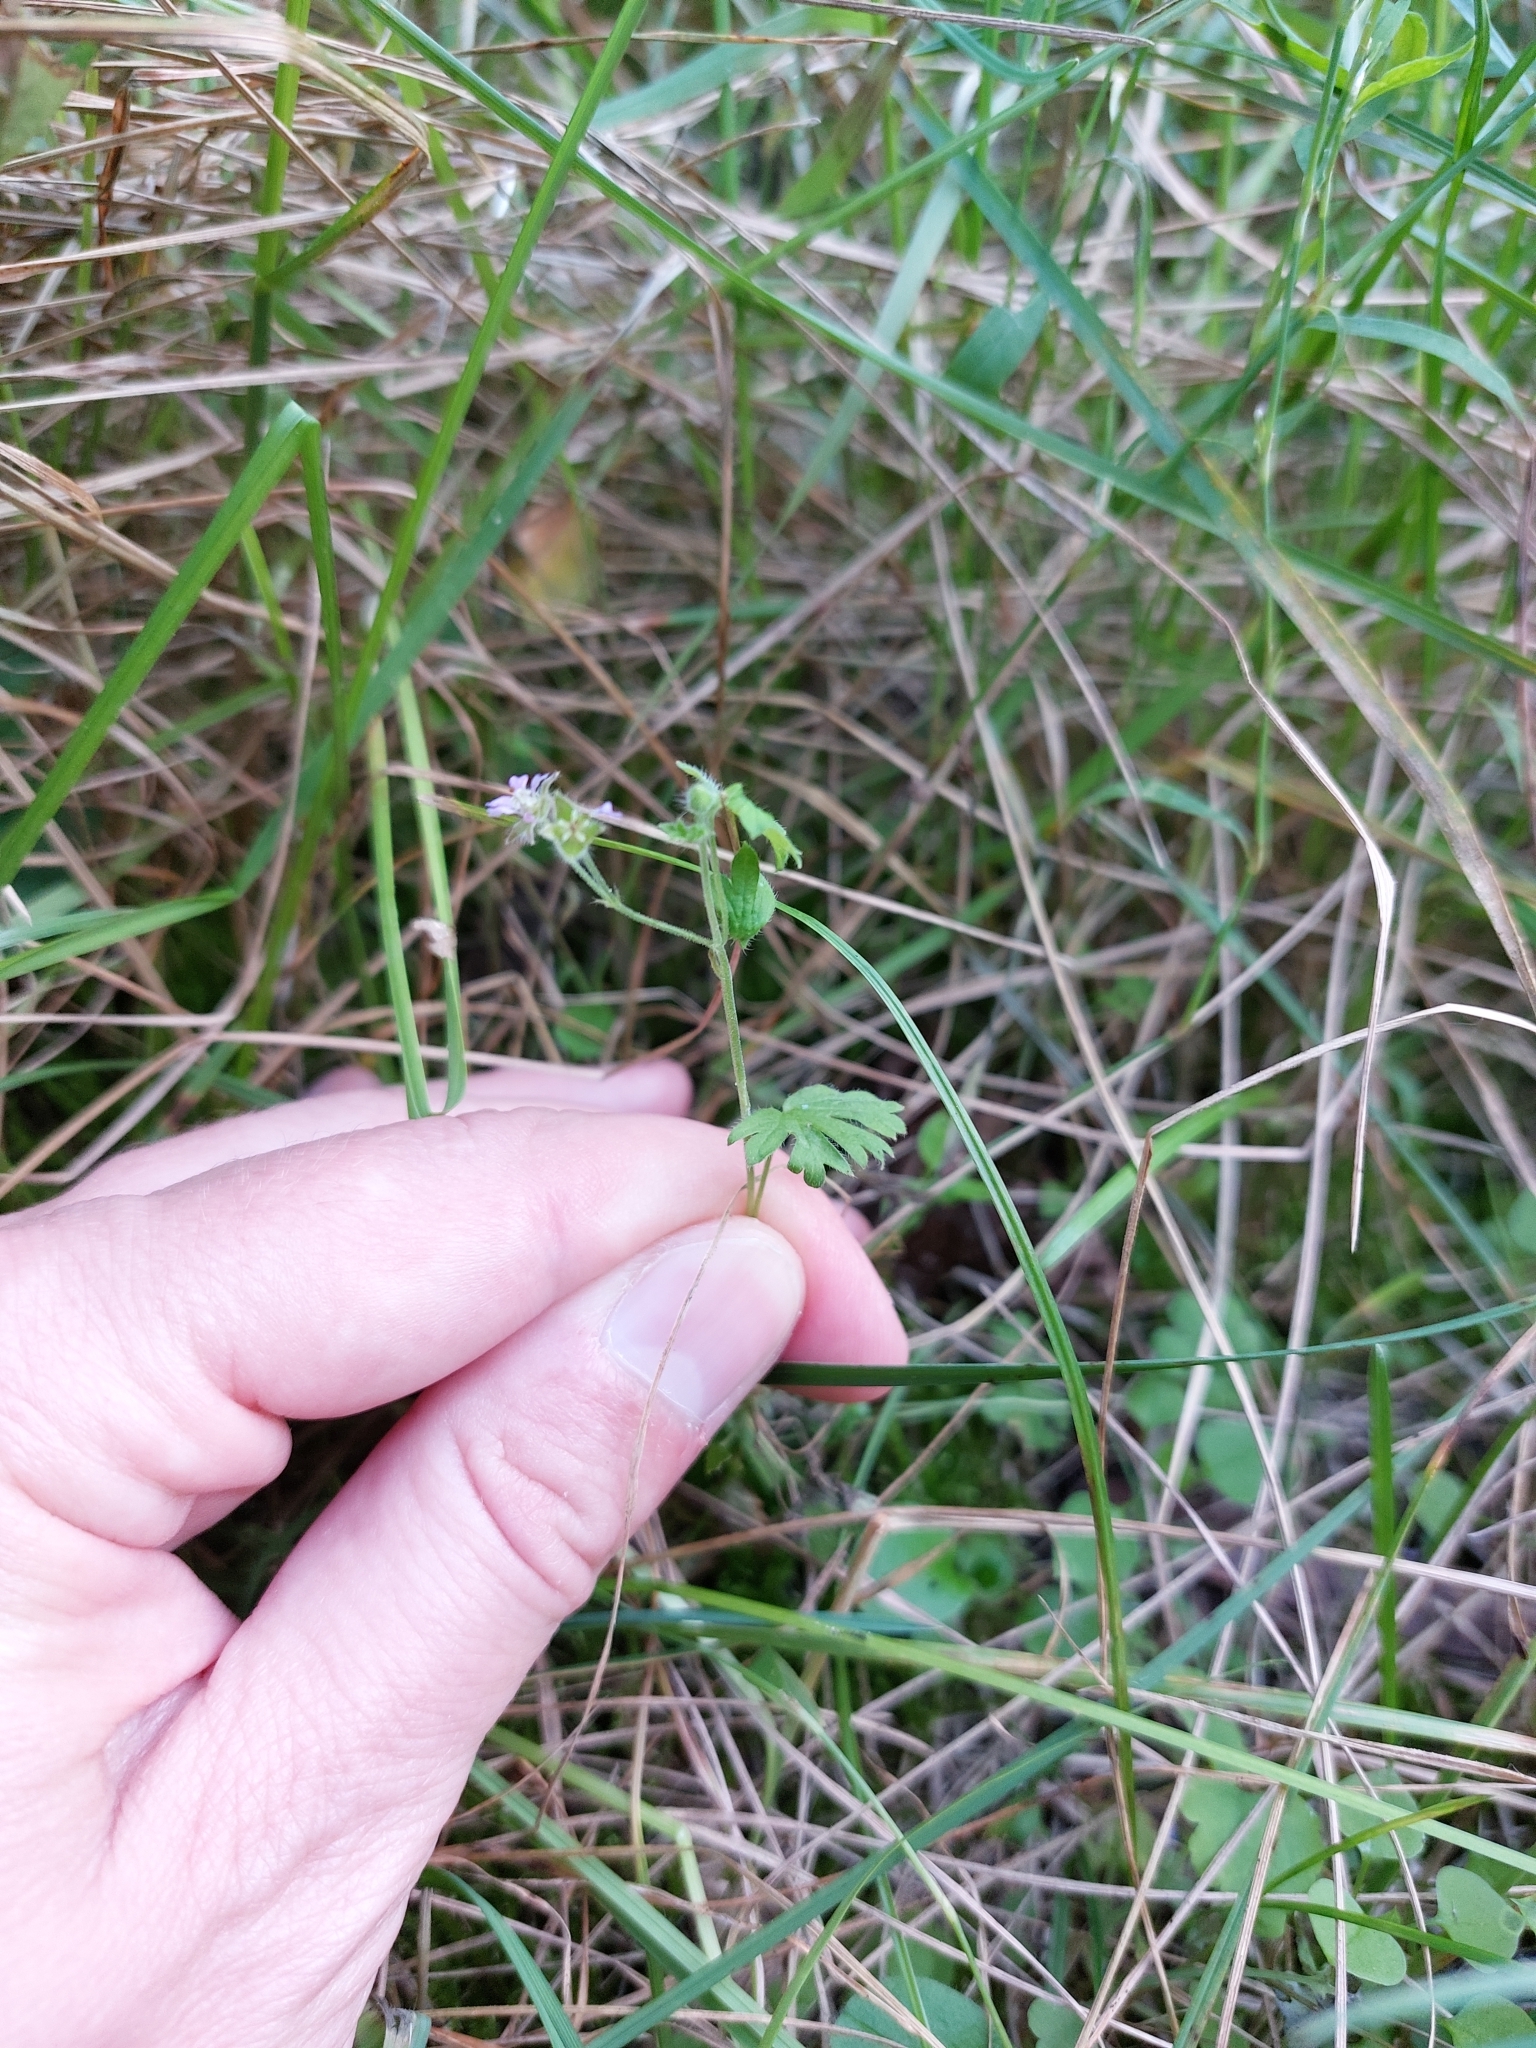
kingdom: Plantae
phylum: Tracheophyta
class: Magnoliopsida
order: Geraniales
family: Geraniaceae
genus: Geranium
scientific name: Geranium pusillum
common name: Small geranium
